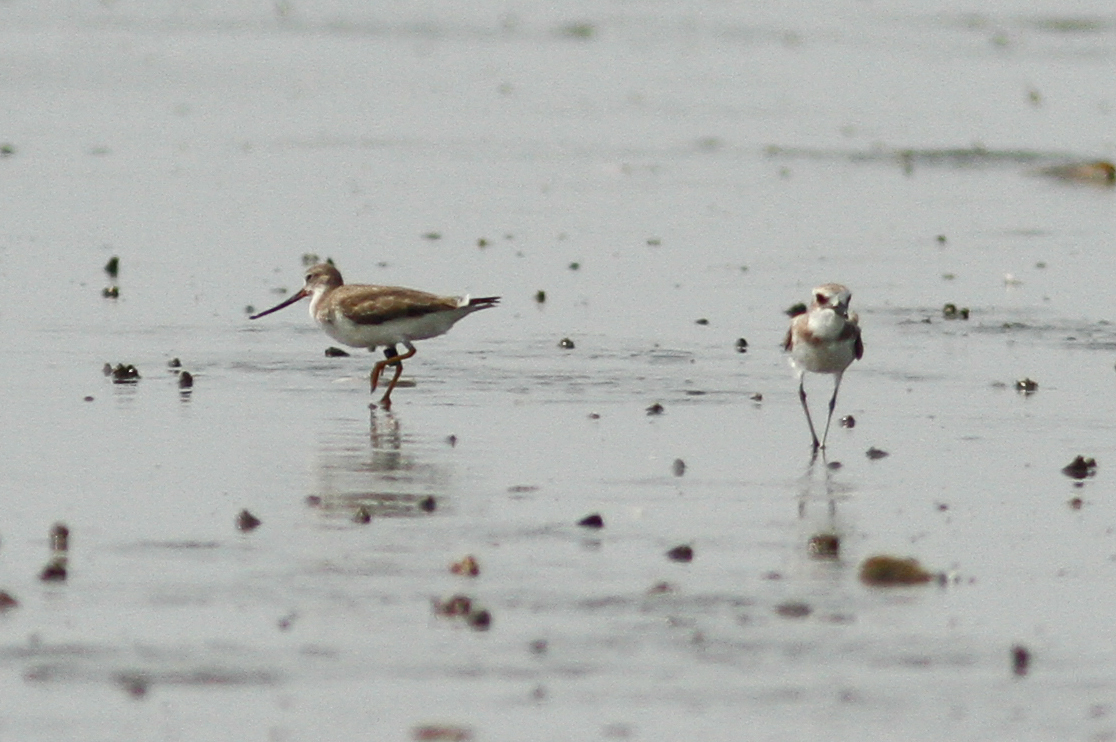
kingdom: Animalia
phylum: Chordata
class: Aves
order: Charadriiformes
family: Scolopacidae
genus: Xenus
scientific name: Xenus cinereus
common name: Terek sandpiper
